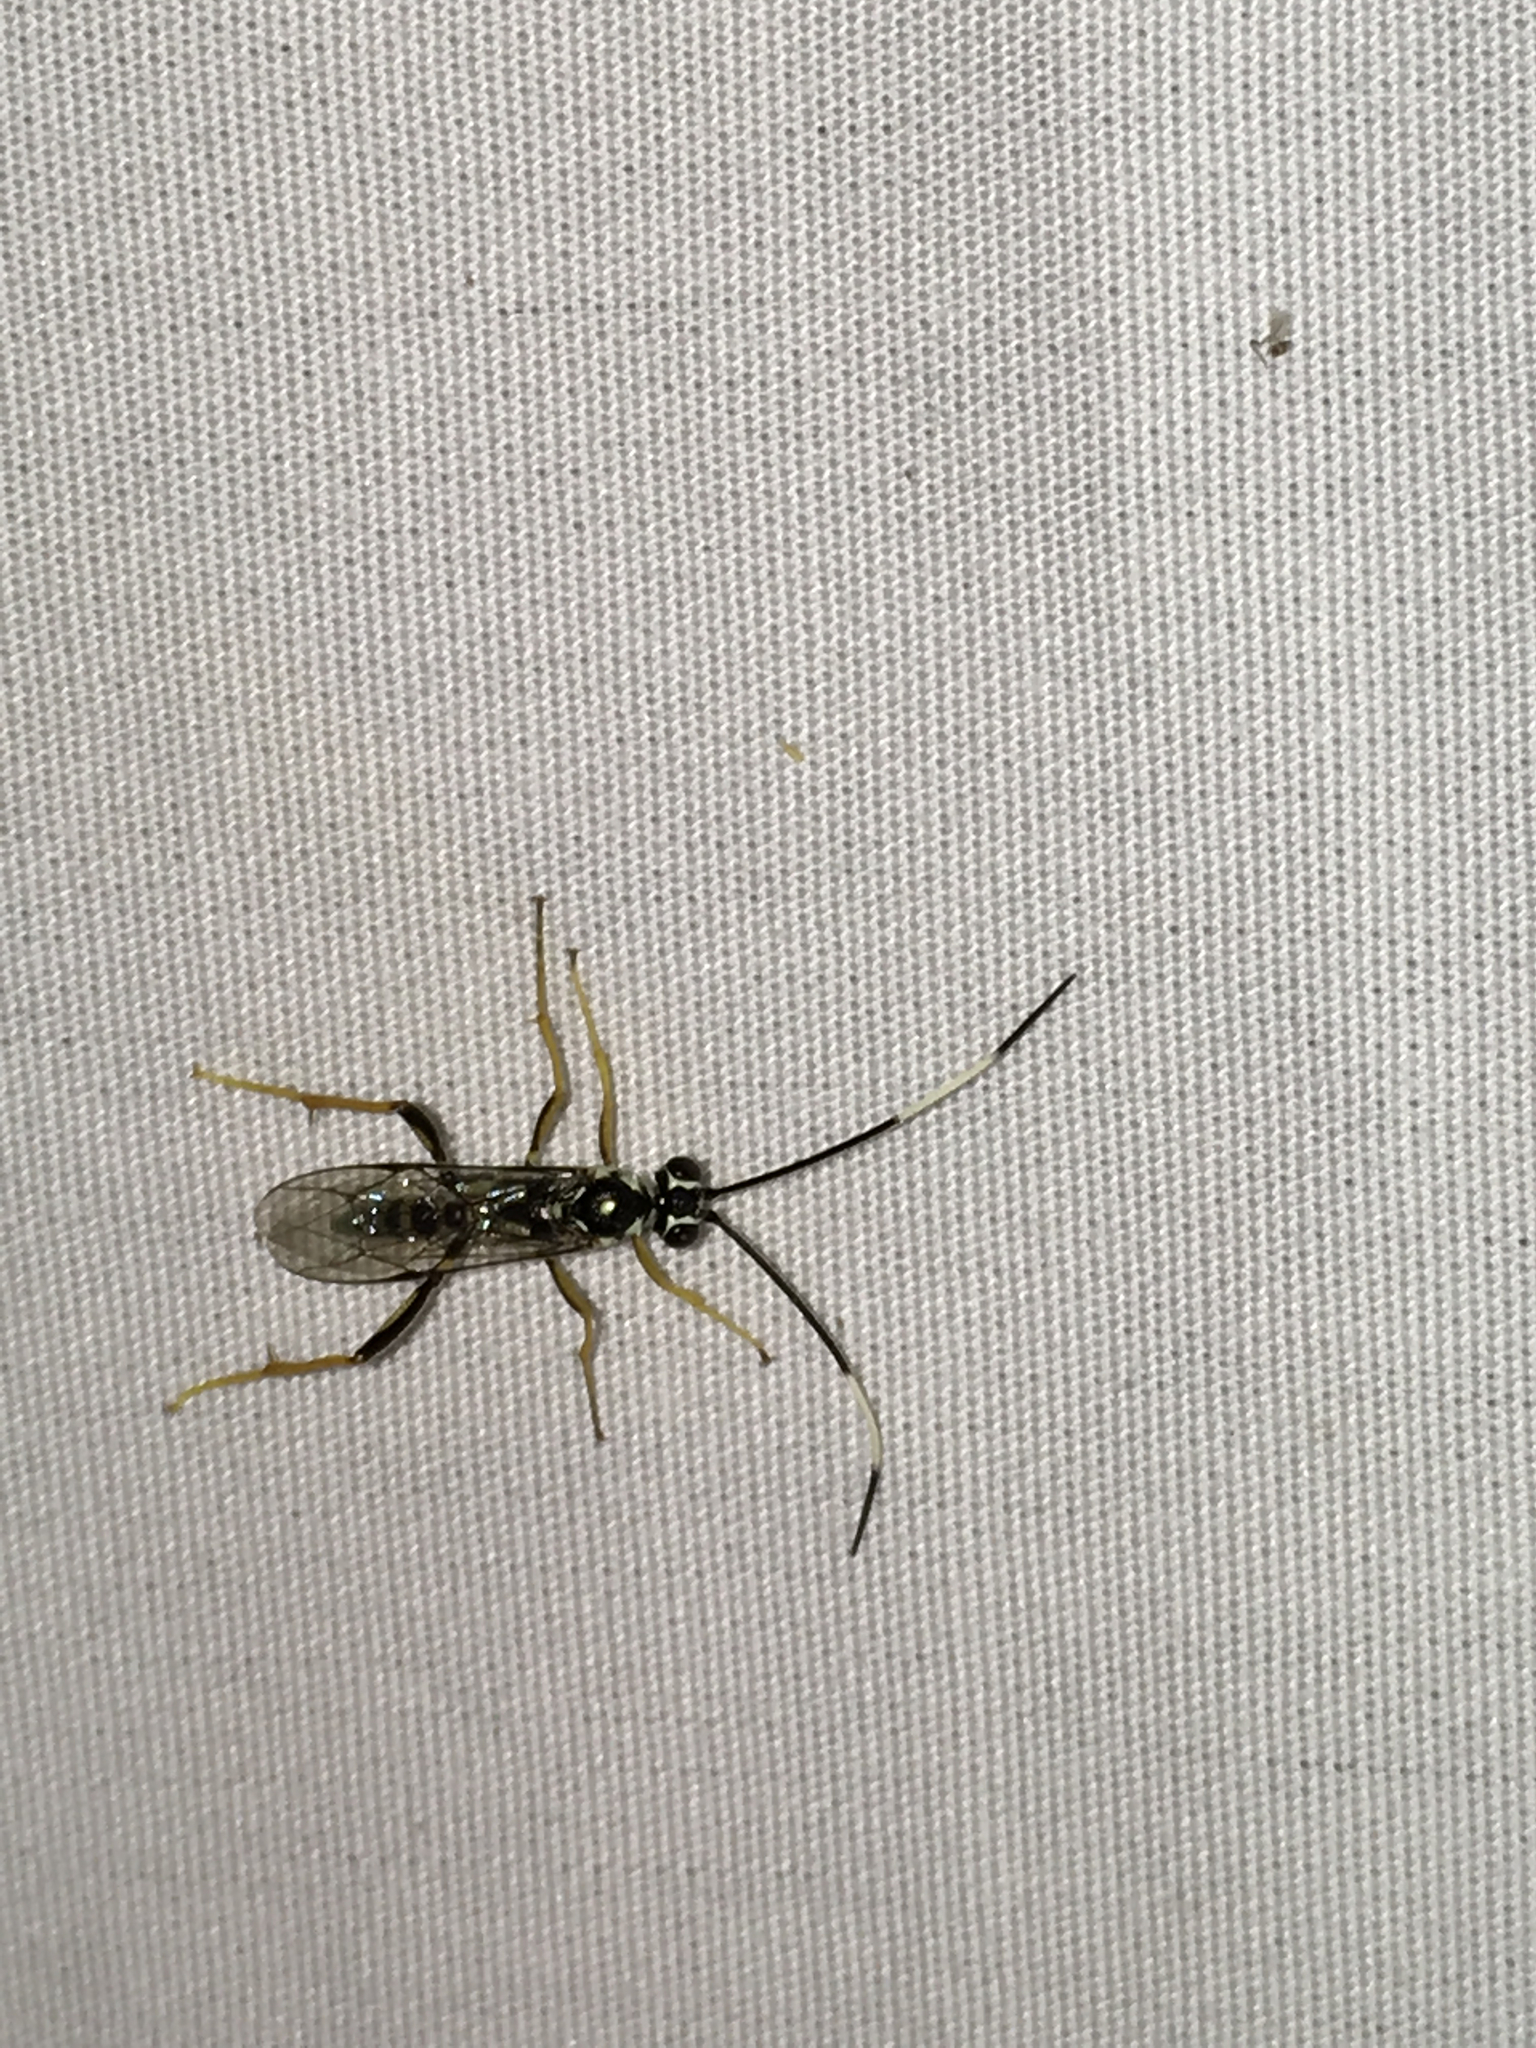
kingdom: Animalia
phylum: Arthropoda
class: Insecta
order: Hymenoptera
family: Ichneumonidae
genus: Cryptanura
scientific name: Cryptanura spinaria
